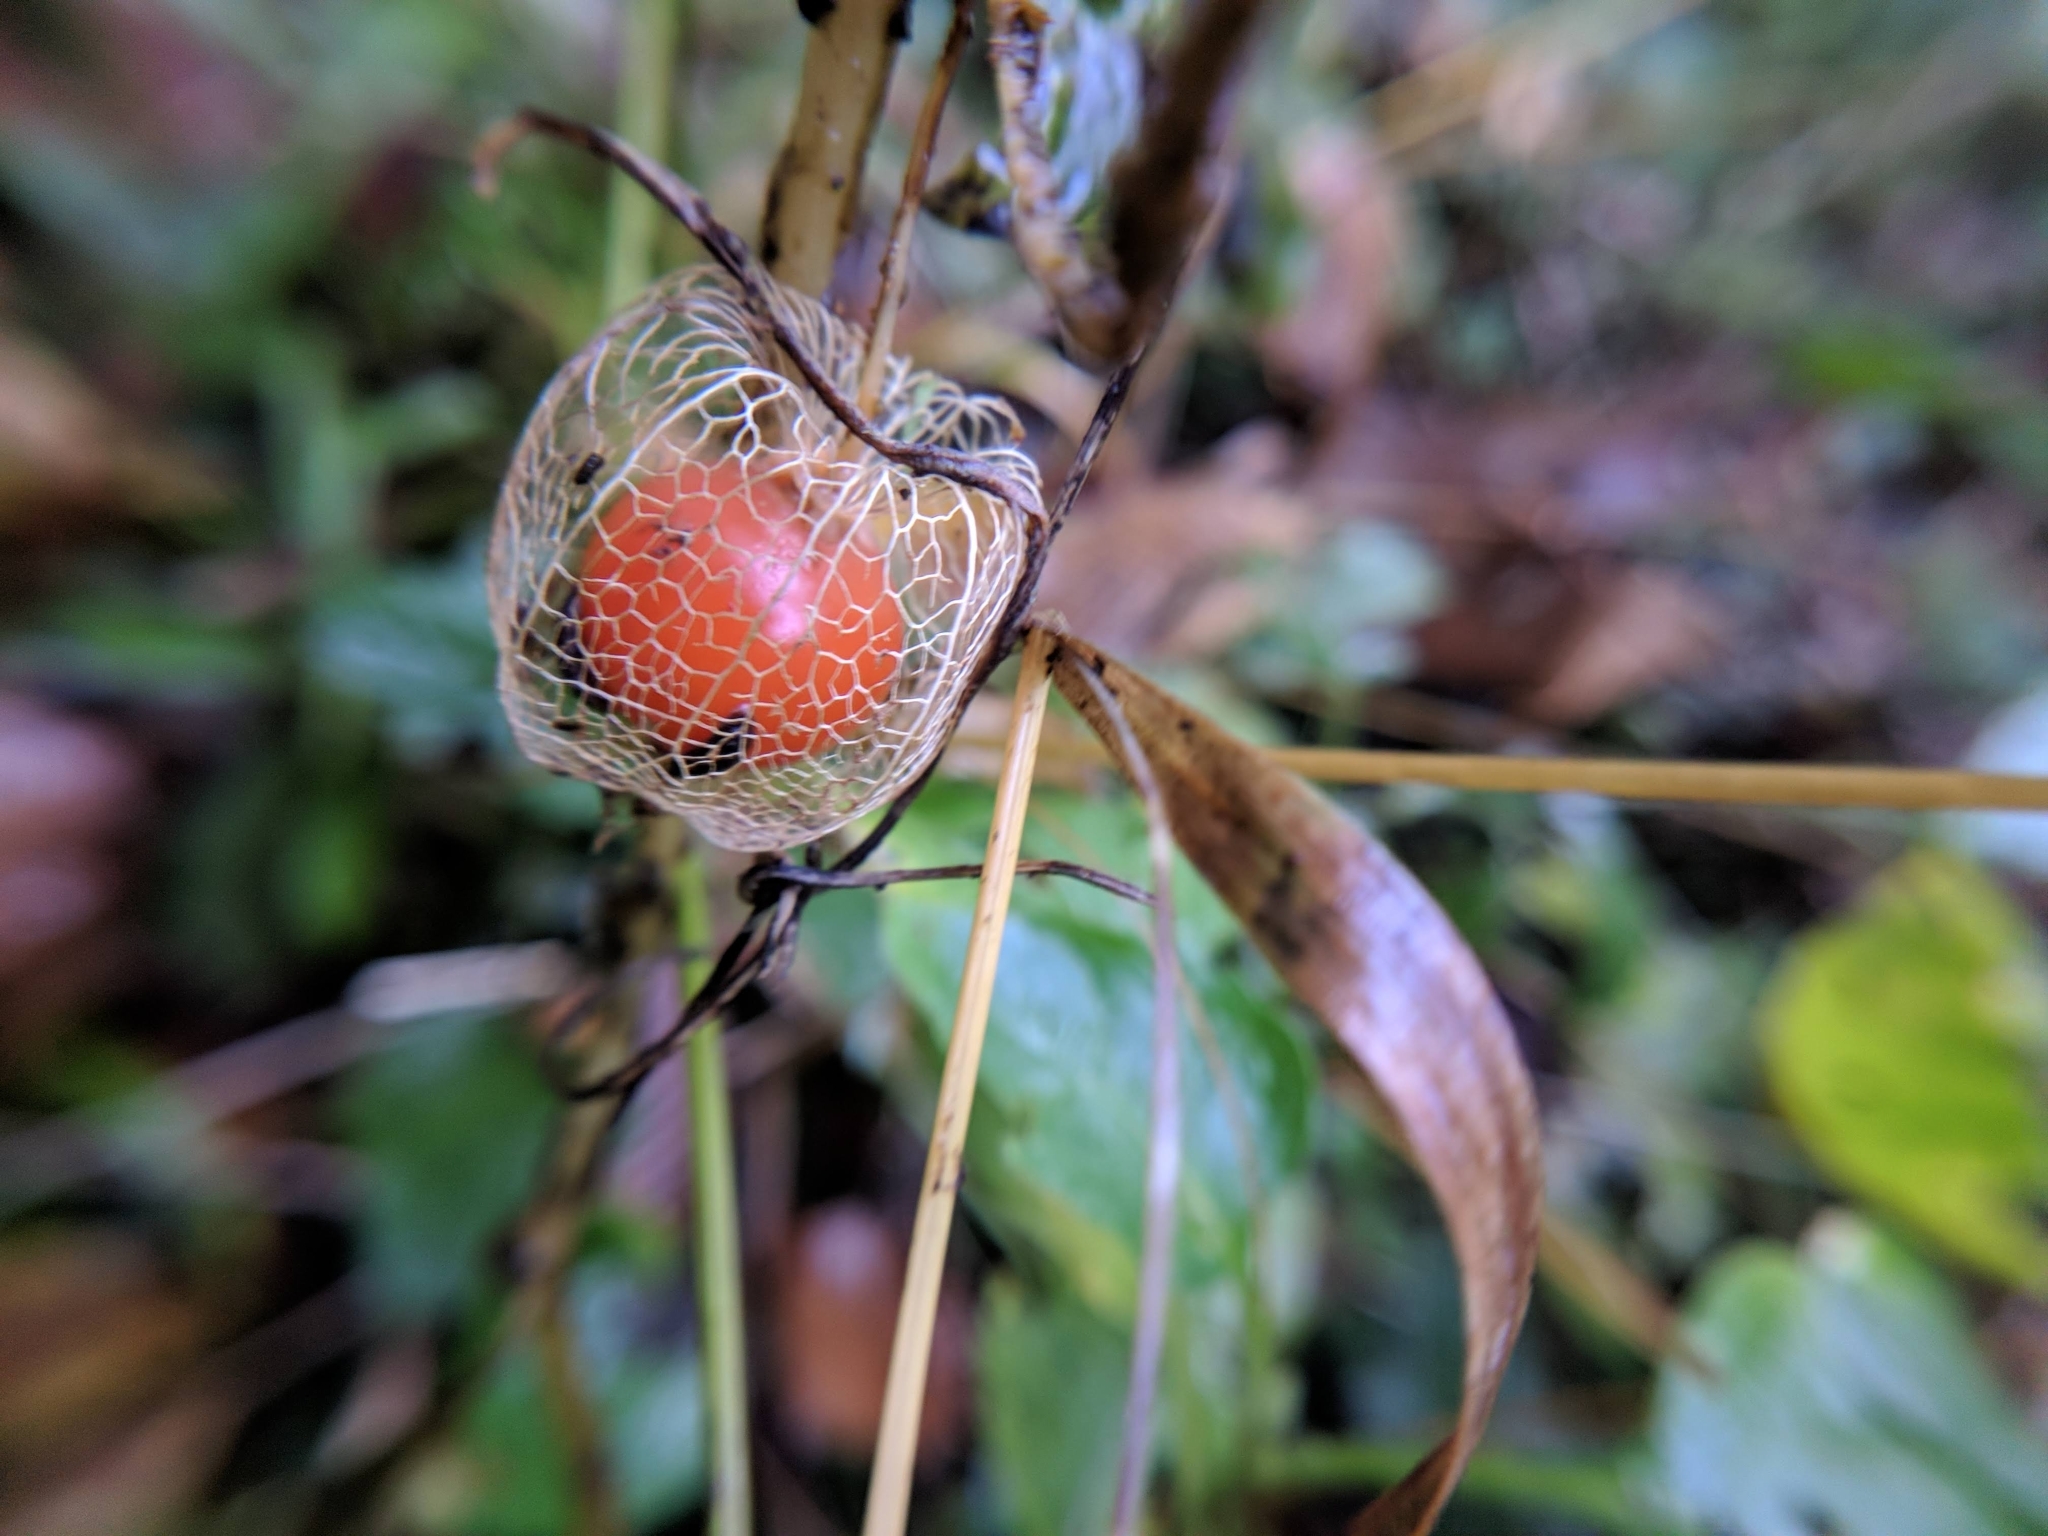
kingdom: Plantae
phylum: Tracheophyta
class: Magnoliopsida
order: Solanales
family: Solanaceae
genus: Alkekengi
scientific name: Alkekengi officinarum
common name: Japanese-lantern
